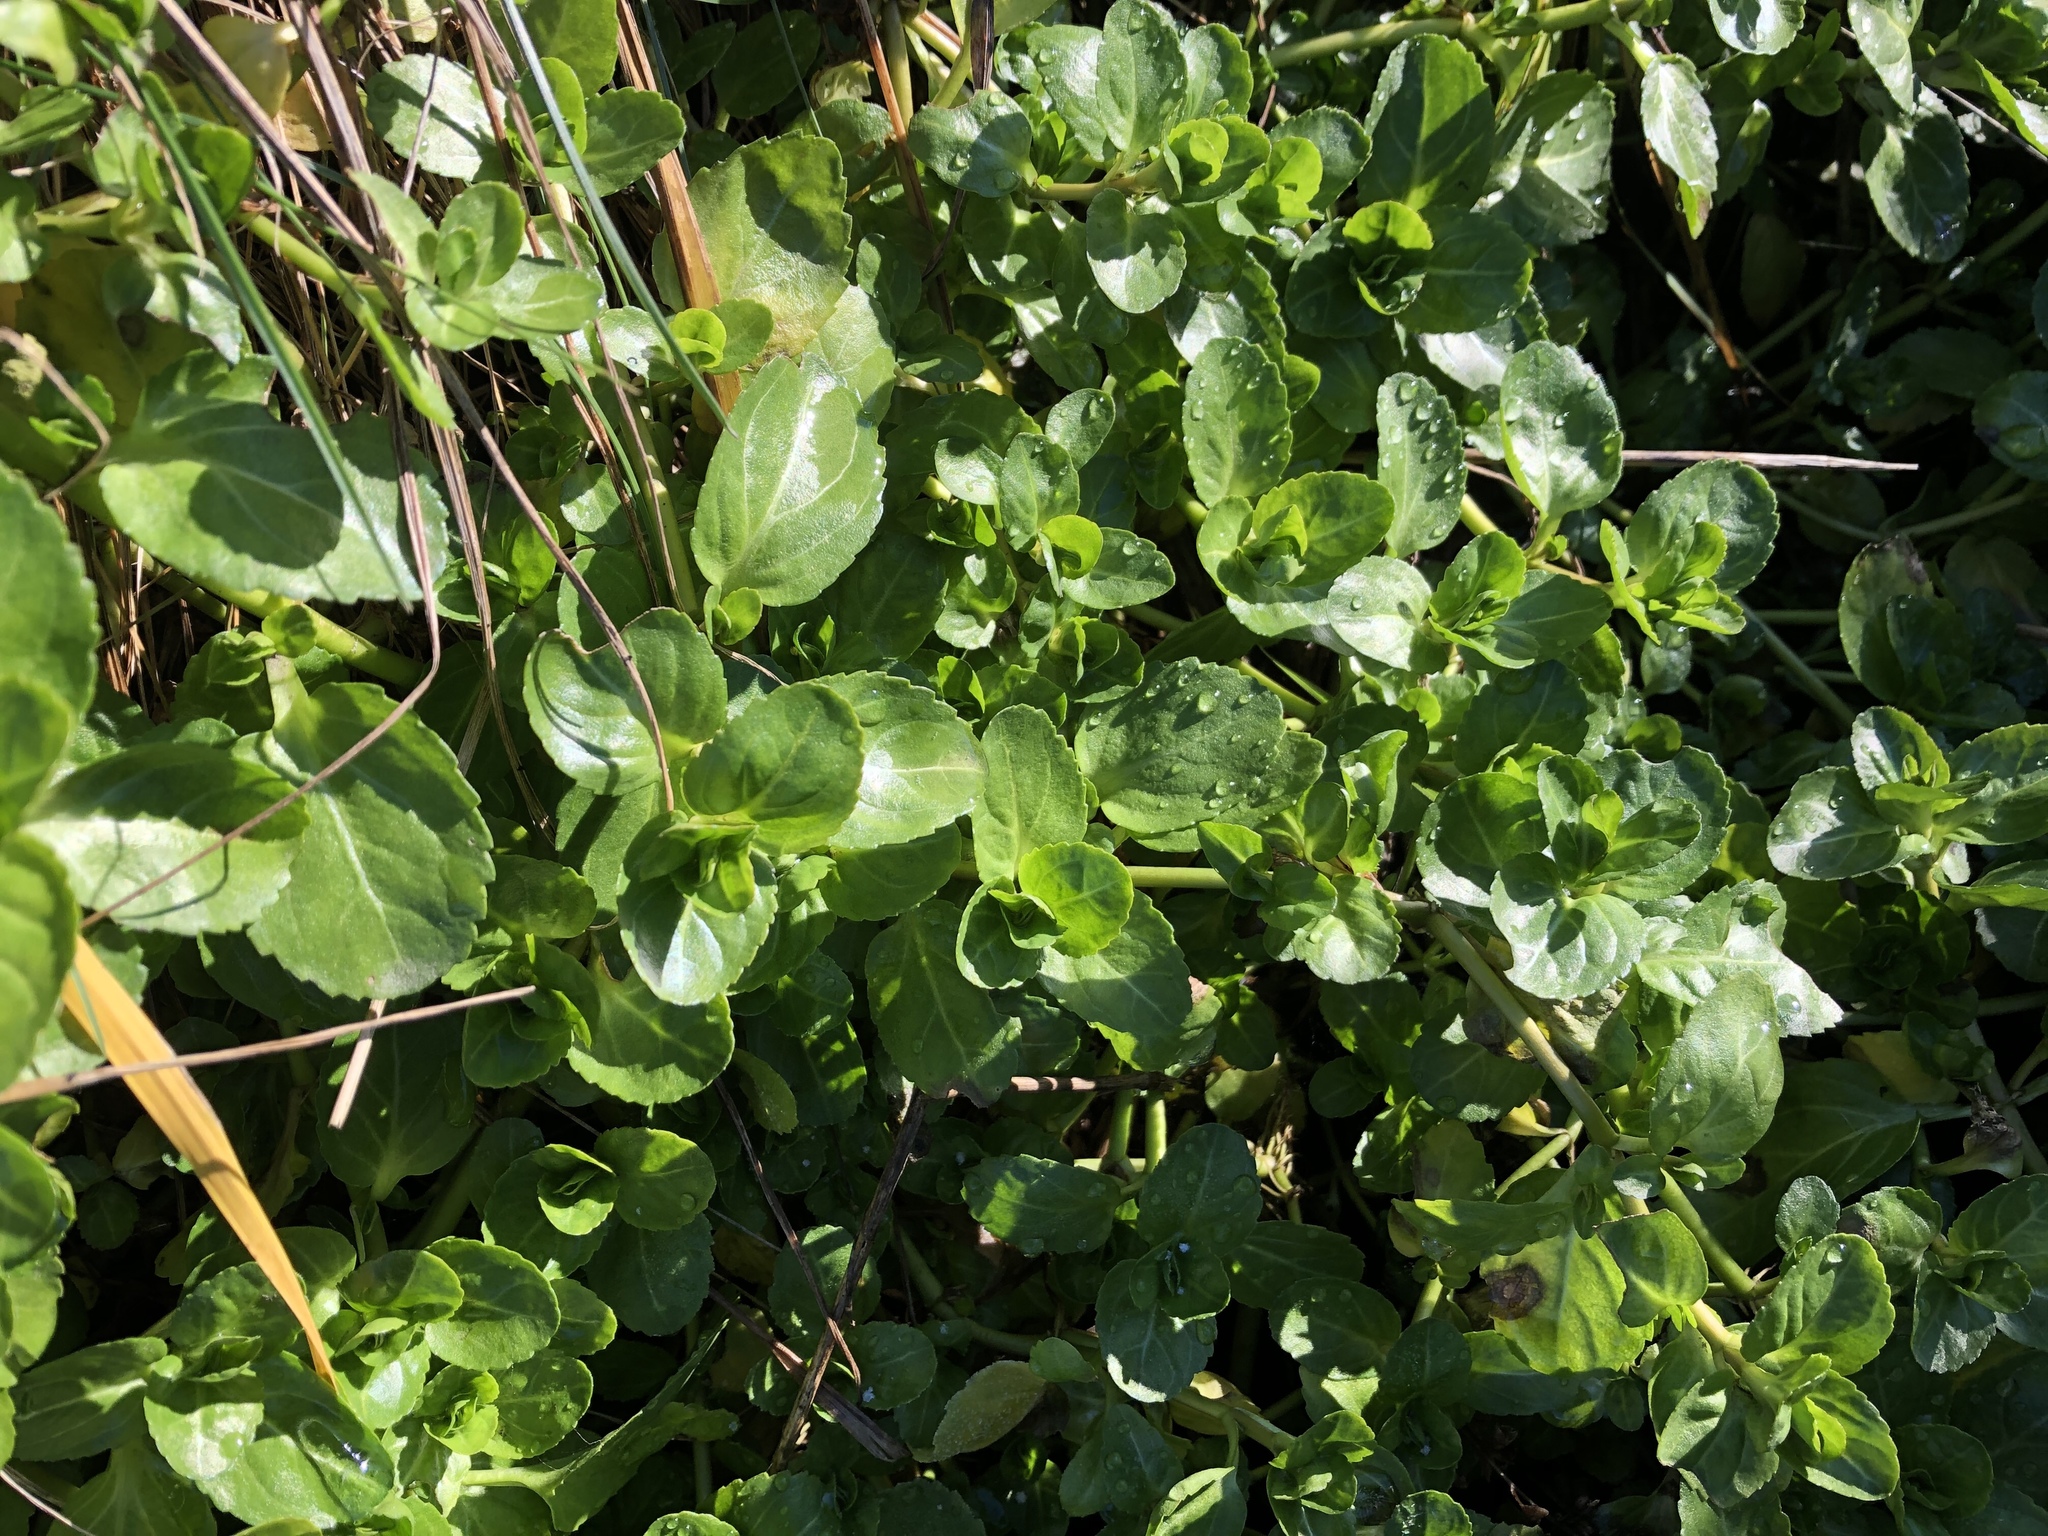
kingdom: Plantae
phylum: Tracheophyta
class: Magnoliopsida
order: Lamiales
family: Plantaginaceae
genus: Veronica
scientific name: Veronica beccabunga
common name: Brooklime
